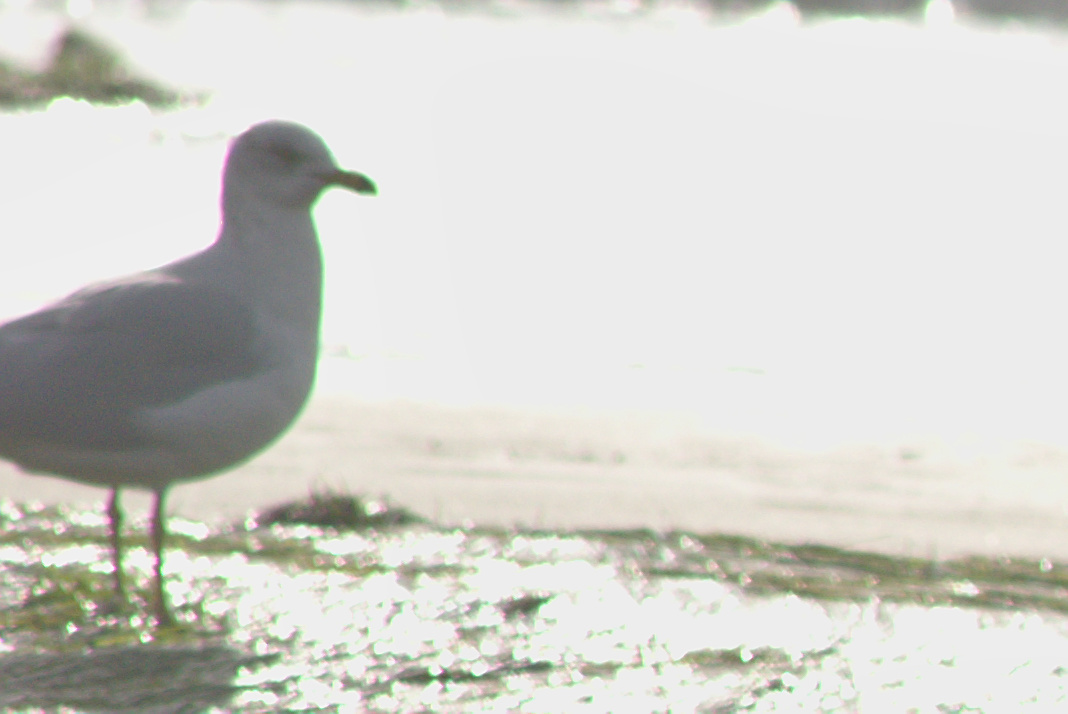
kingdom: Animalia
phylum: Chordata
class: Aves
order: Charadriiformes
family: Laridae
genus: Larus
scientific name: Larus delawarensis
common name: Ring-billed gull
